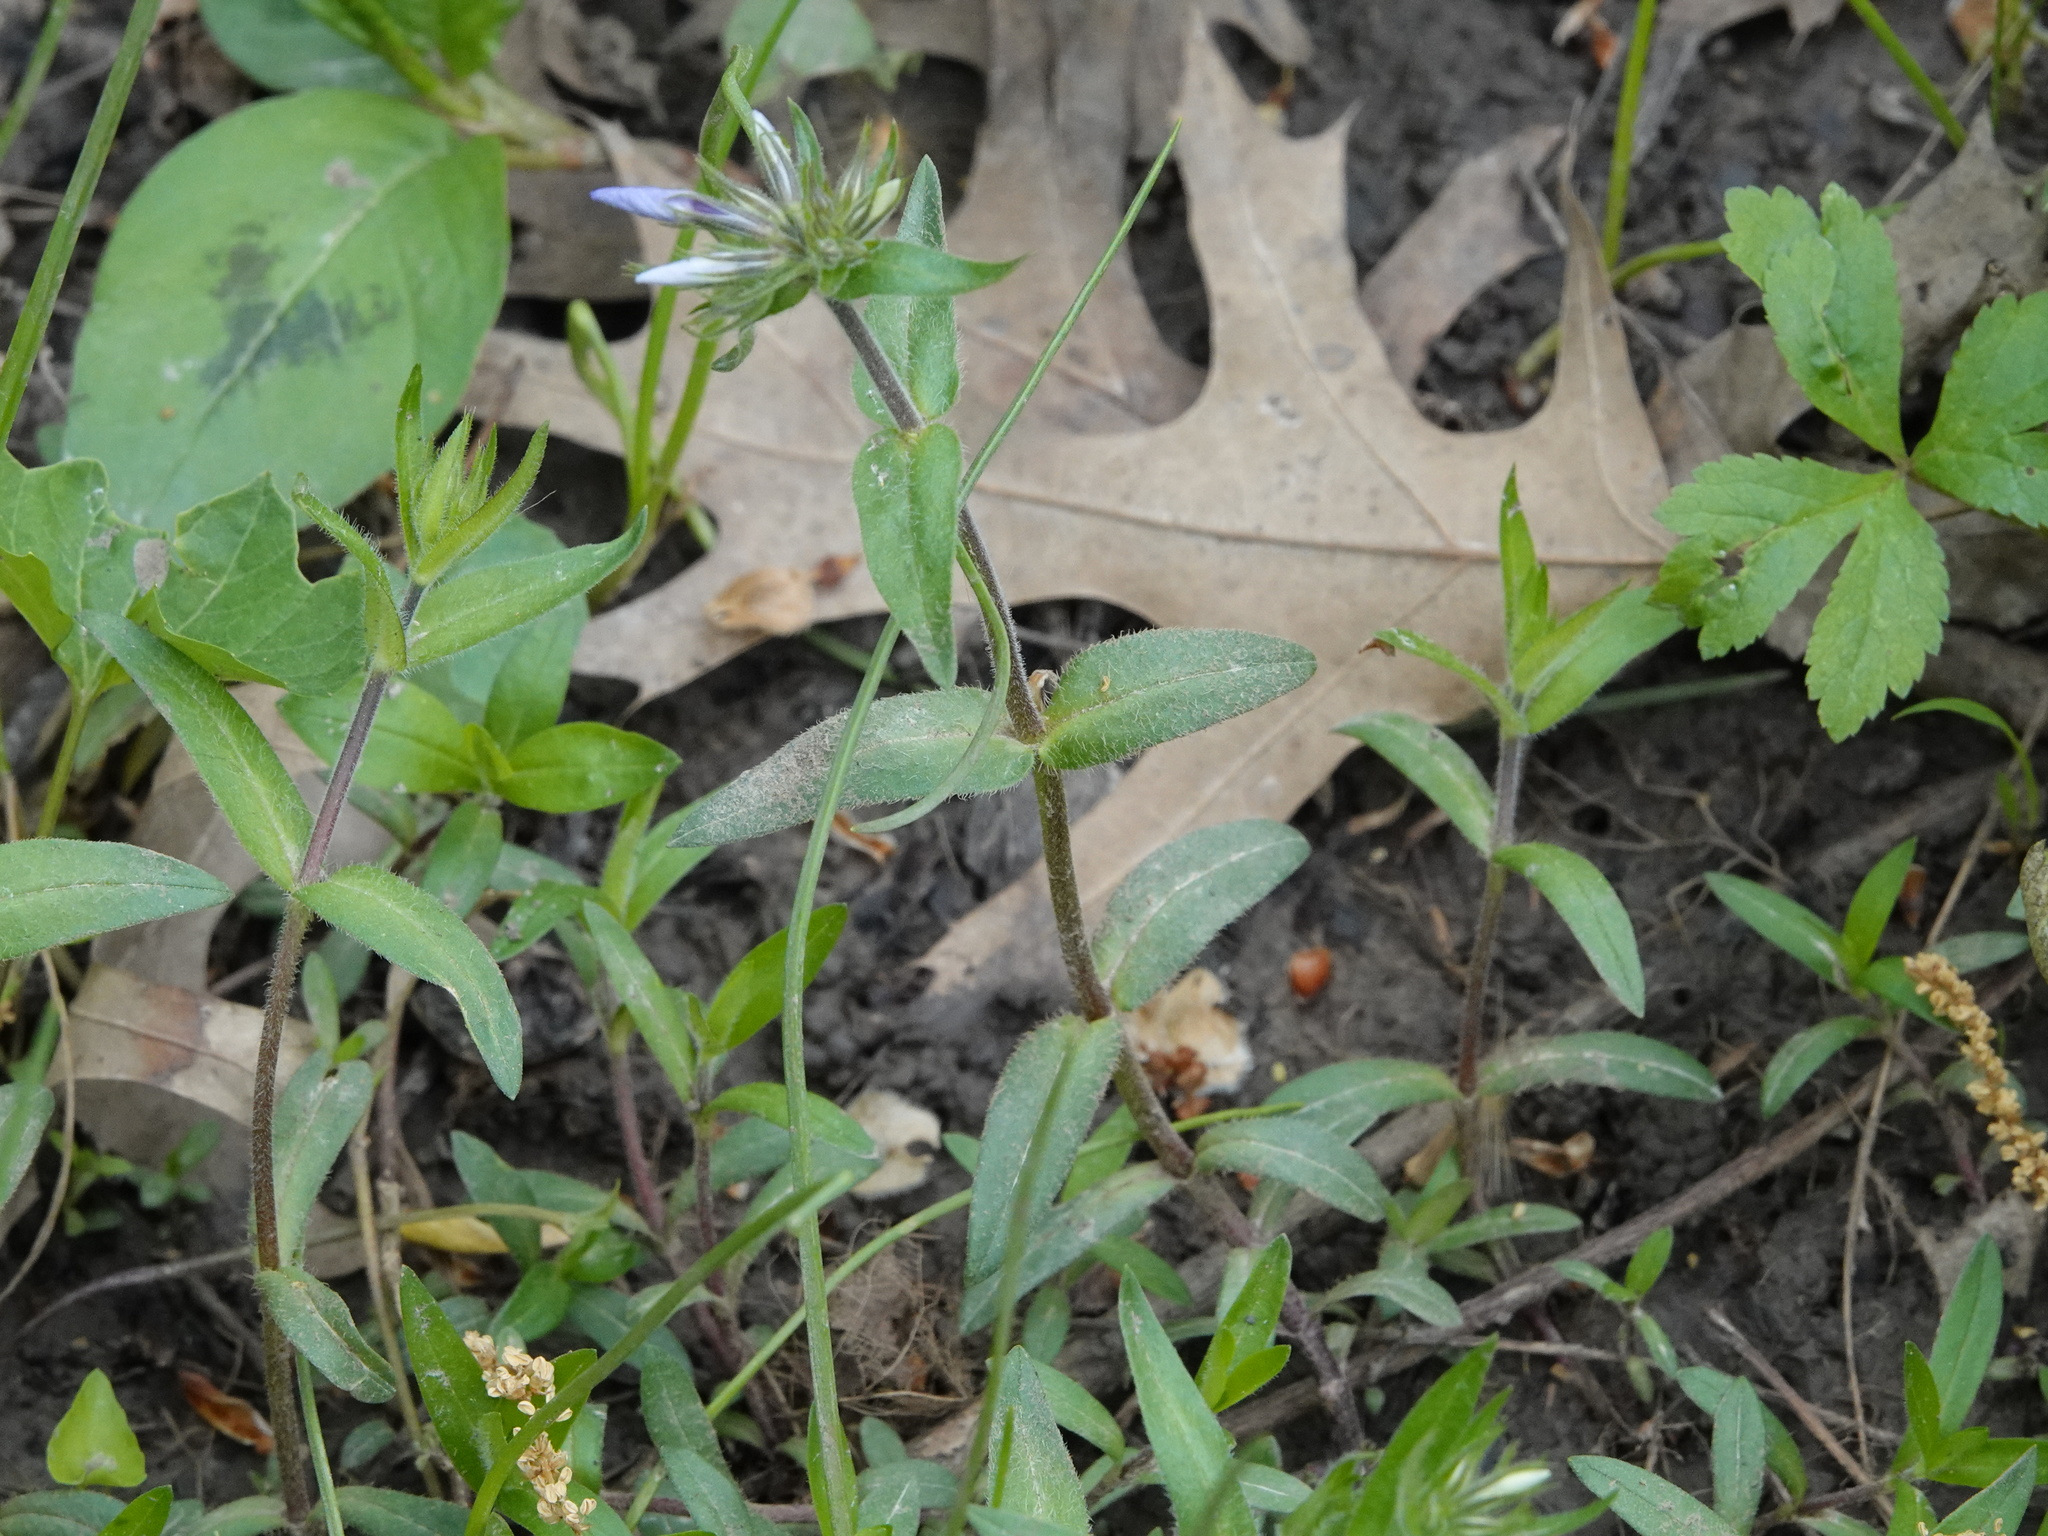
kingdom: Plantae
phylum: Tracheophyta
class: Magnoliopsida
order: Ericales
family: Polemoniaceae
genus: Phlox
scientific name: Phlox divaricata
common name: Blue phlox
